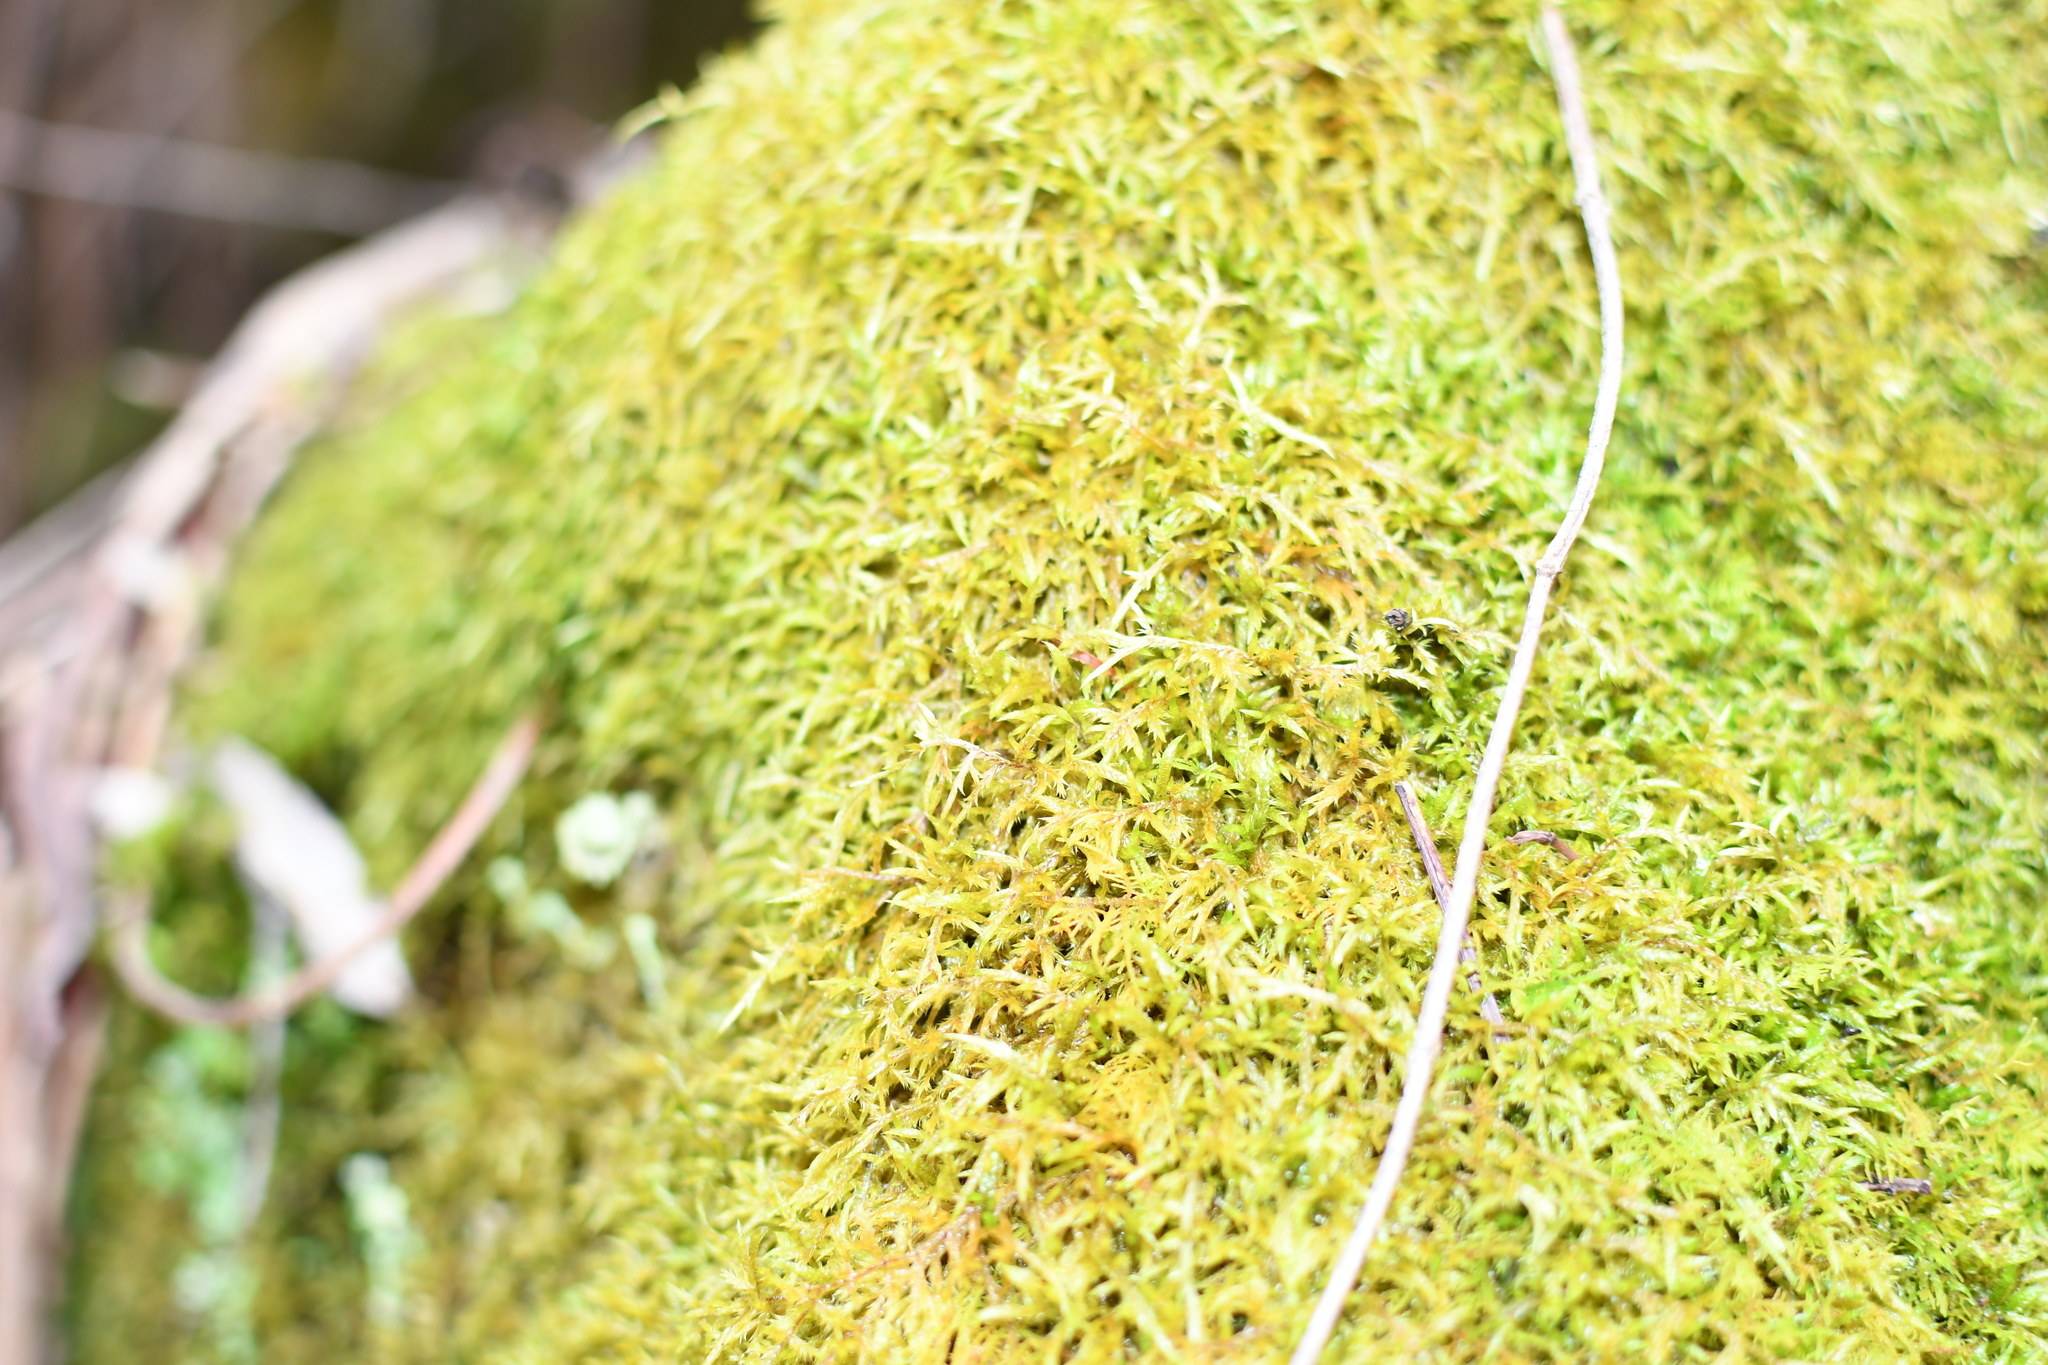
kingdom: Plantae
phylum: Bryophyta
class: Bryopsida
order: Hypnales
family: Pylaisiadelphaceae
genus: Wijkia
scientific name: Wijkia extenuata
